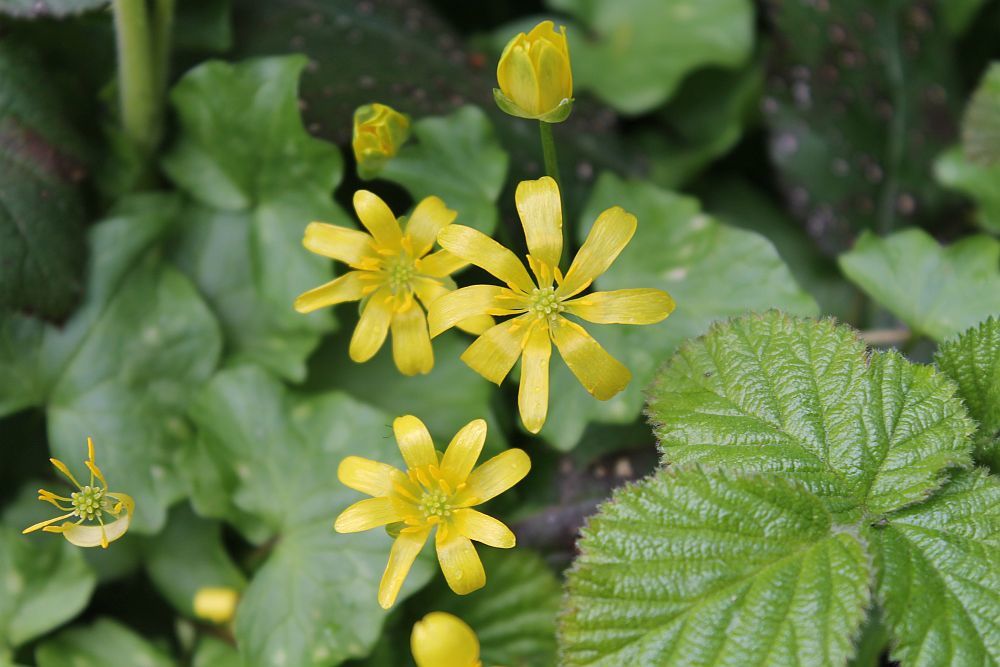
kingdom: Plantae
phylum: Tracheophyta
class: Magnoliopsida
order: Ranunculales
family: Ranunculaceae
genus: Ficaria
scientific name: Ficaria verna
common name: Lesser celandine
